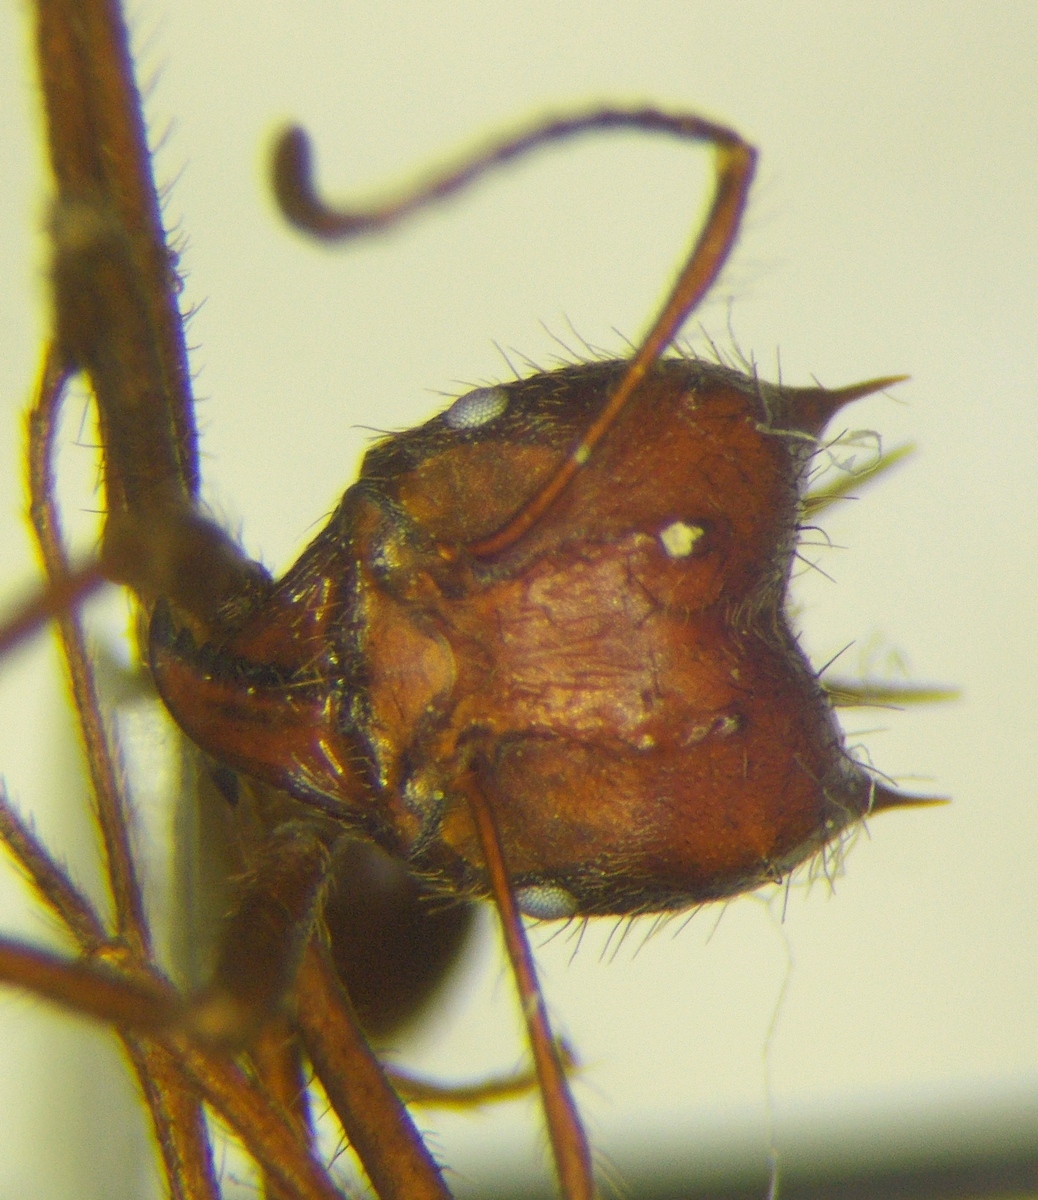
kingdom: Animalia
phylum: Arthropoda
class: Insecta
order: Hymenoptera
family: Formicidae
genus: Atta
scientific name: Atta mexicana
